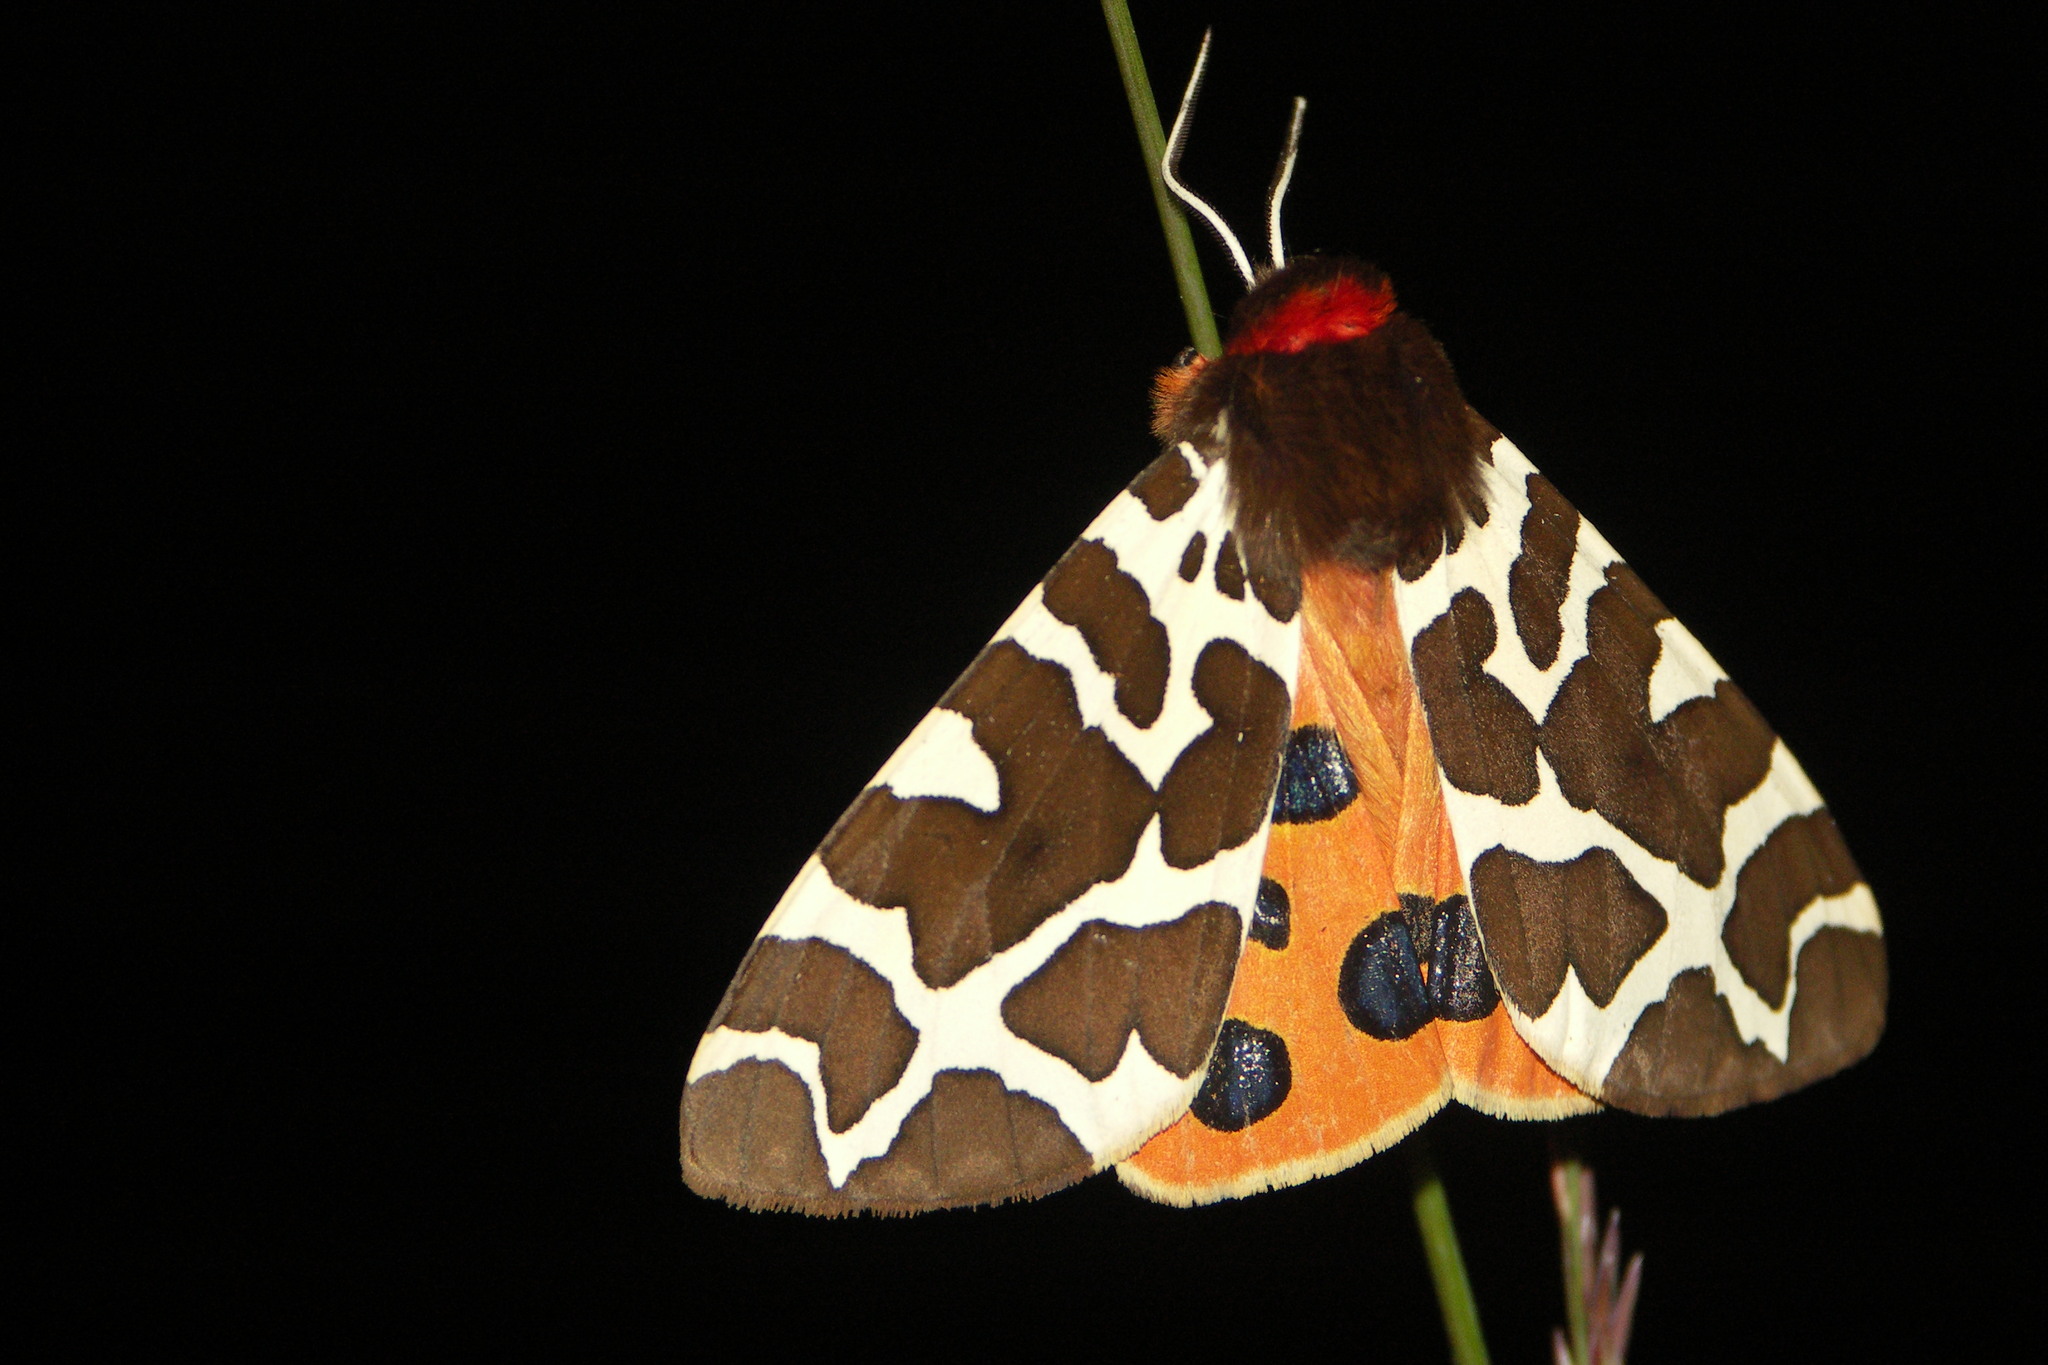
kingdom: Animalia
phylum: Arthropoda
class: Insecta
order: Lepidoptera
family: Erebidae
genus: Arctia
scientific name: Arctia caja
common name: Garden tiger
